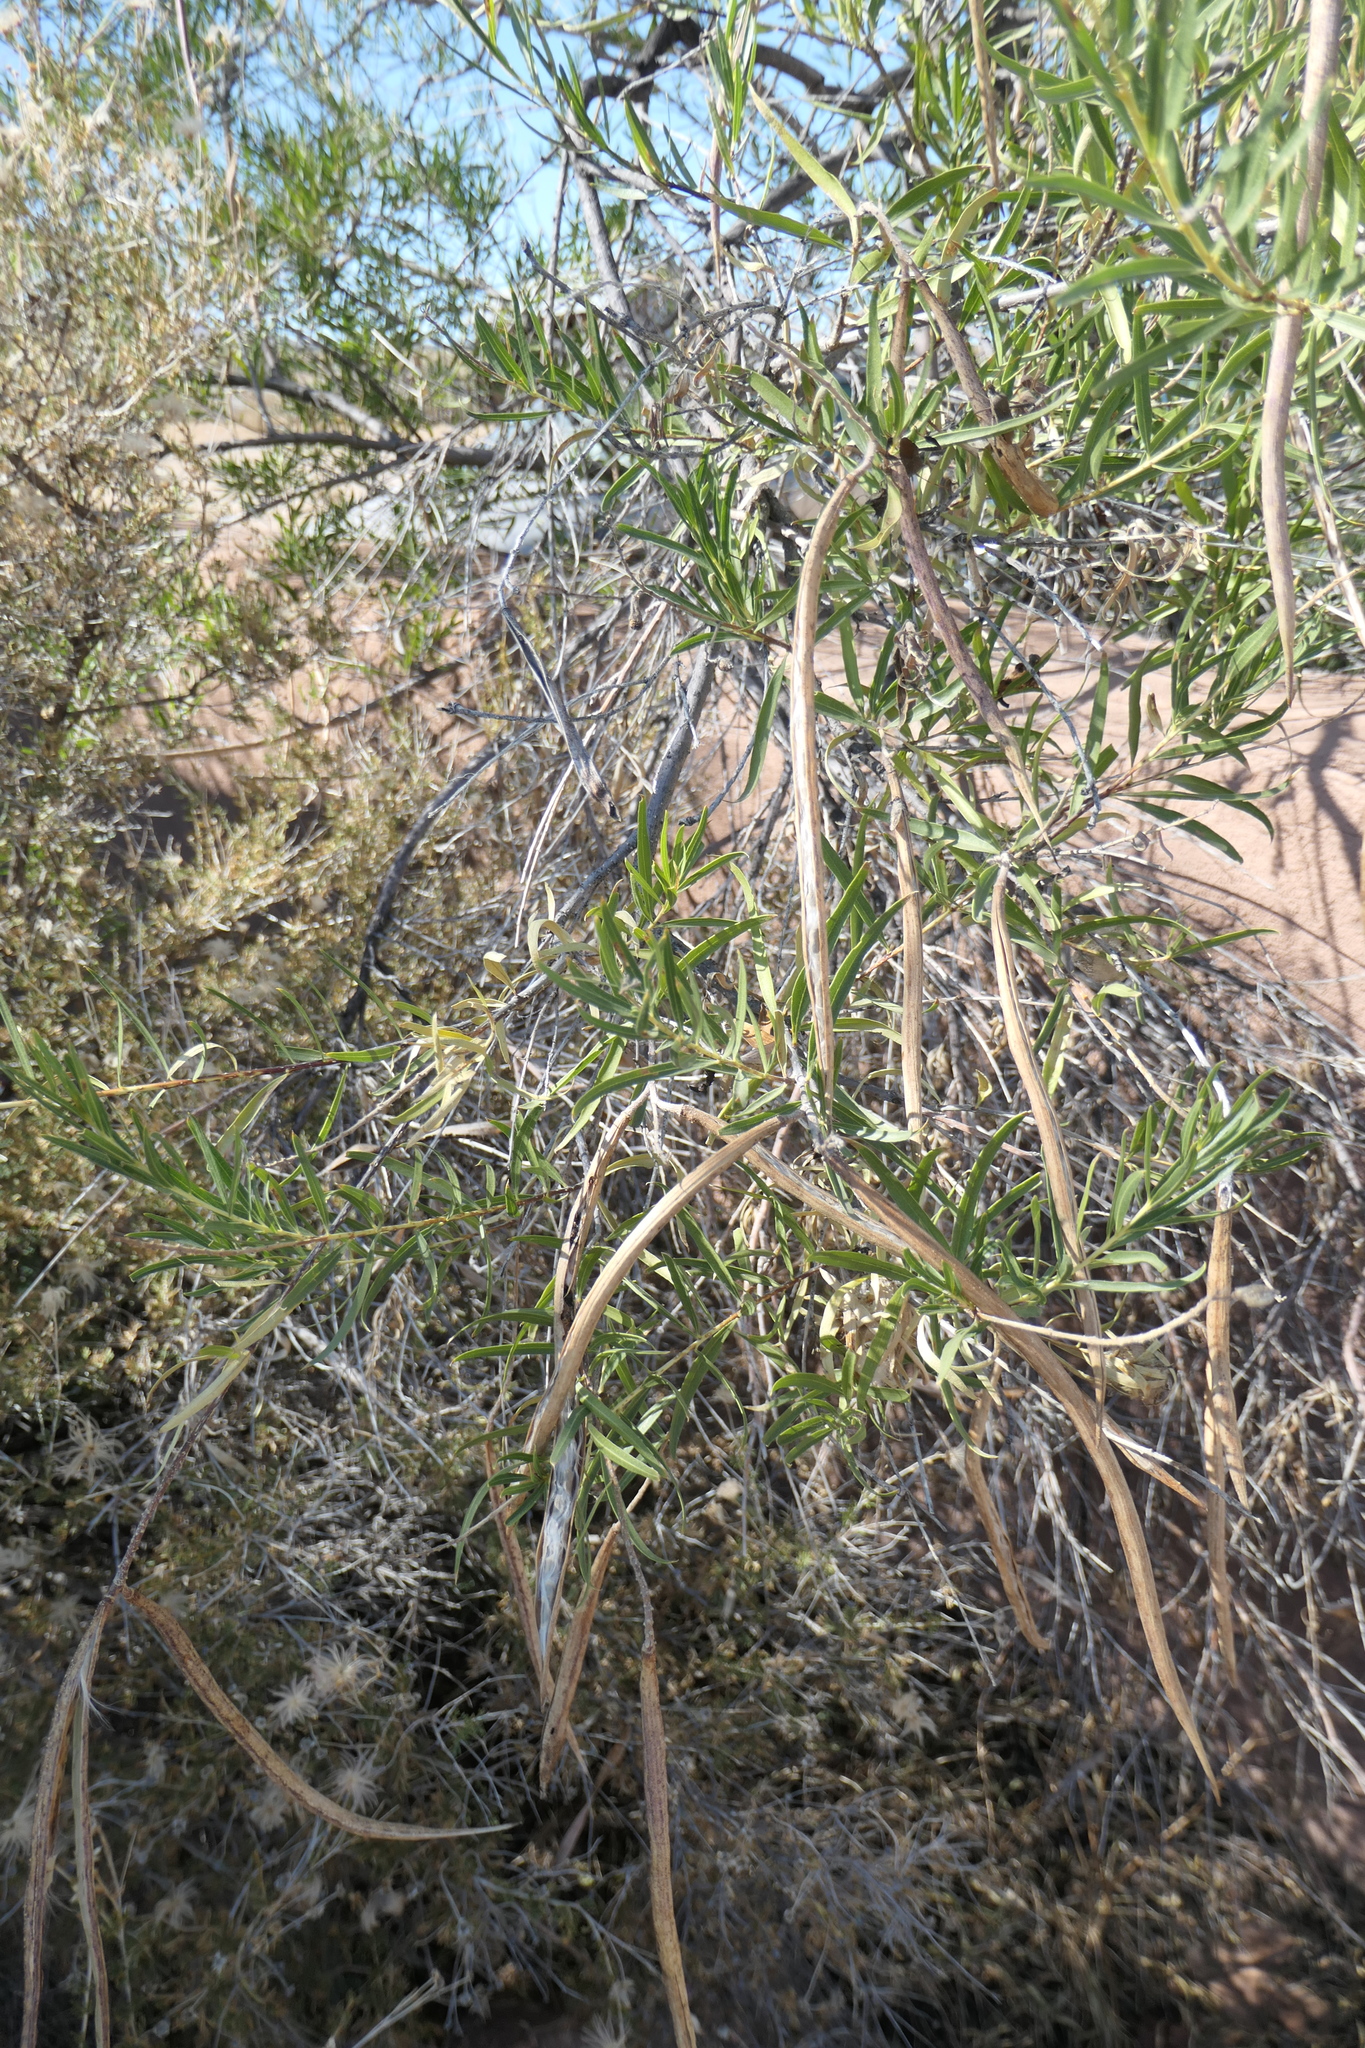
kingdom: Plantae
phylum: Tracheophyta
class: Magnoliopsida
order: Lamiales
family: Bignoniaceae
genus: Chilopsis
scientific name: Chilopsis linearis
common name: Desert-willow
